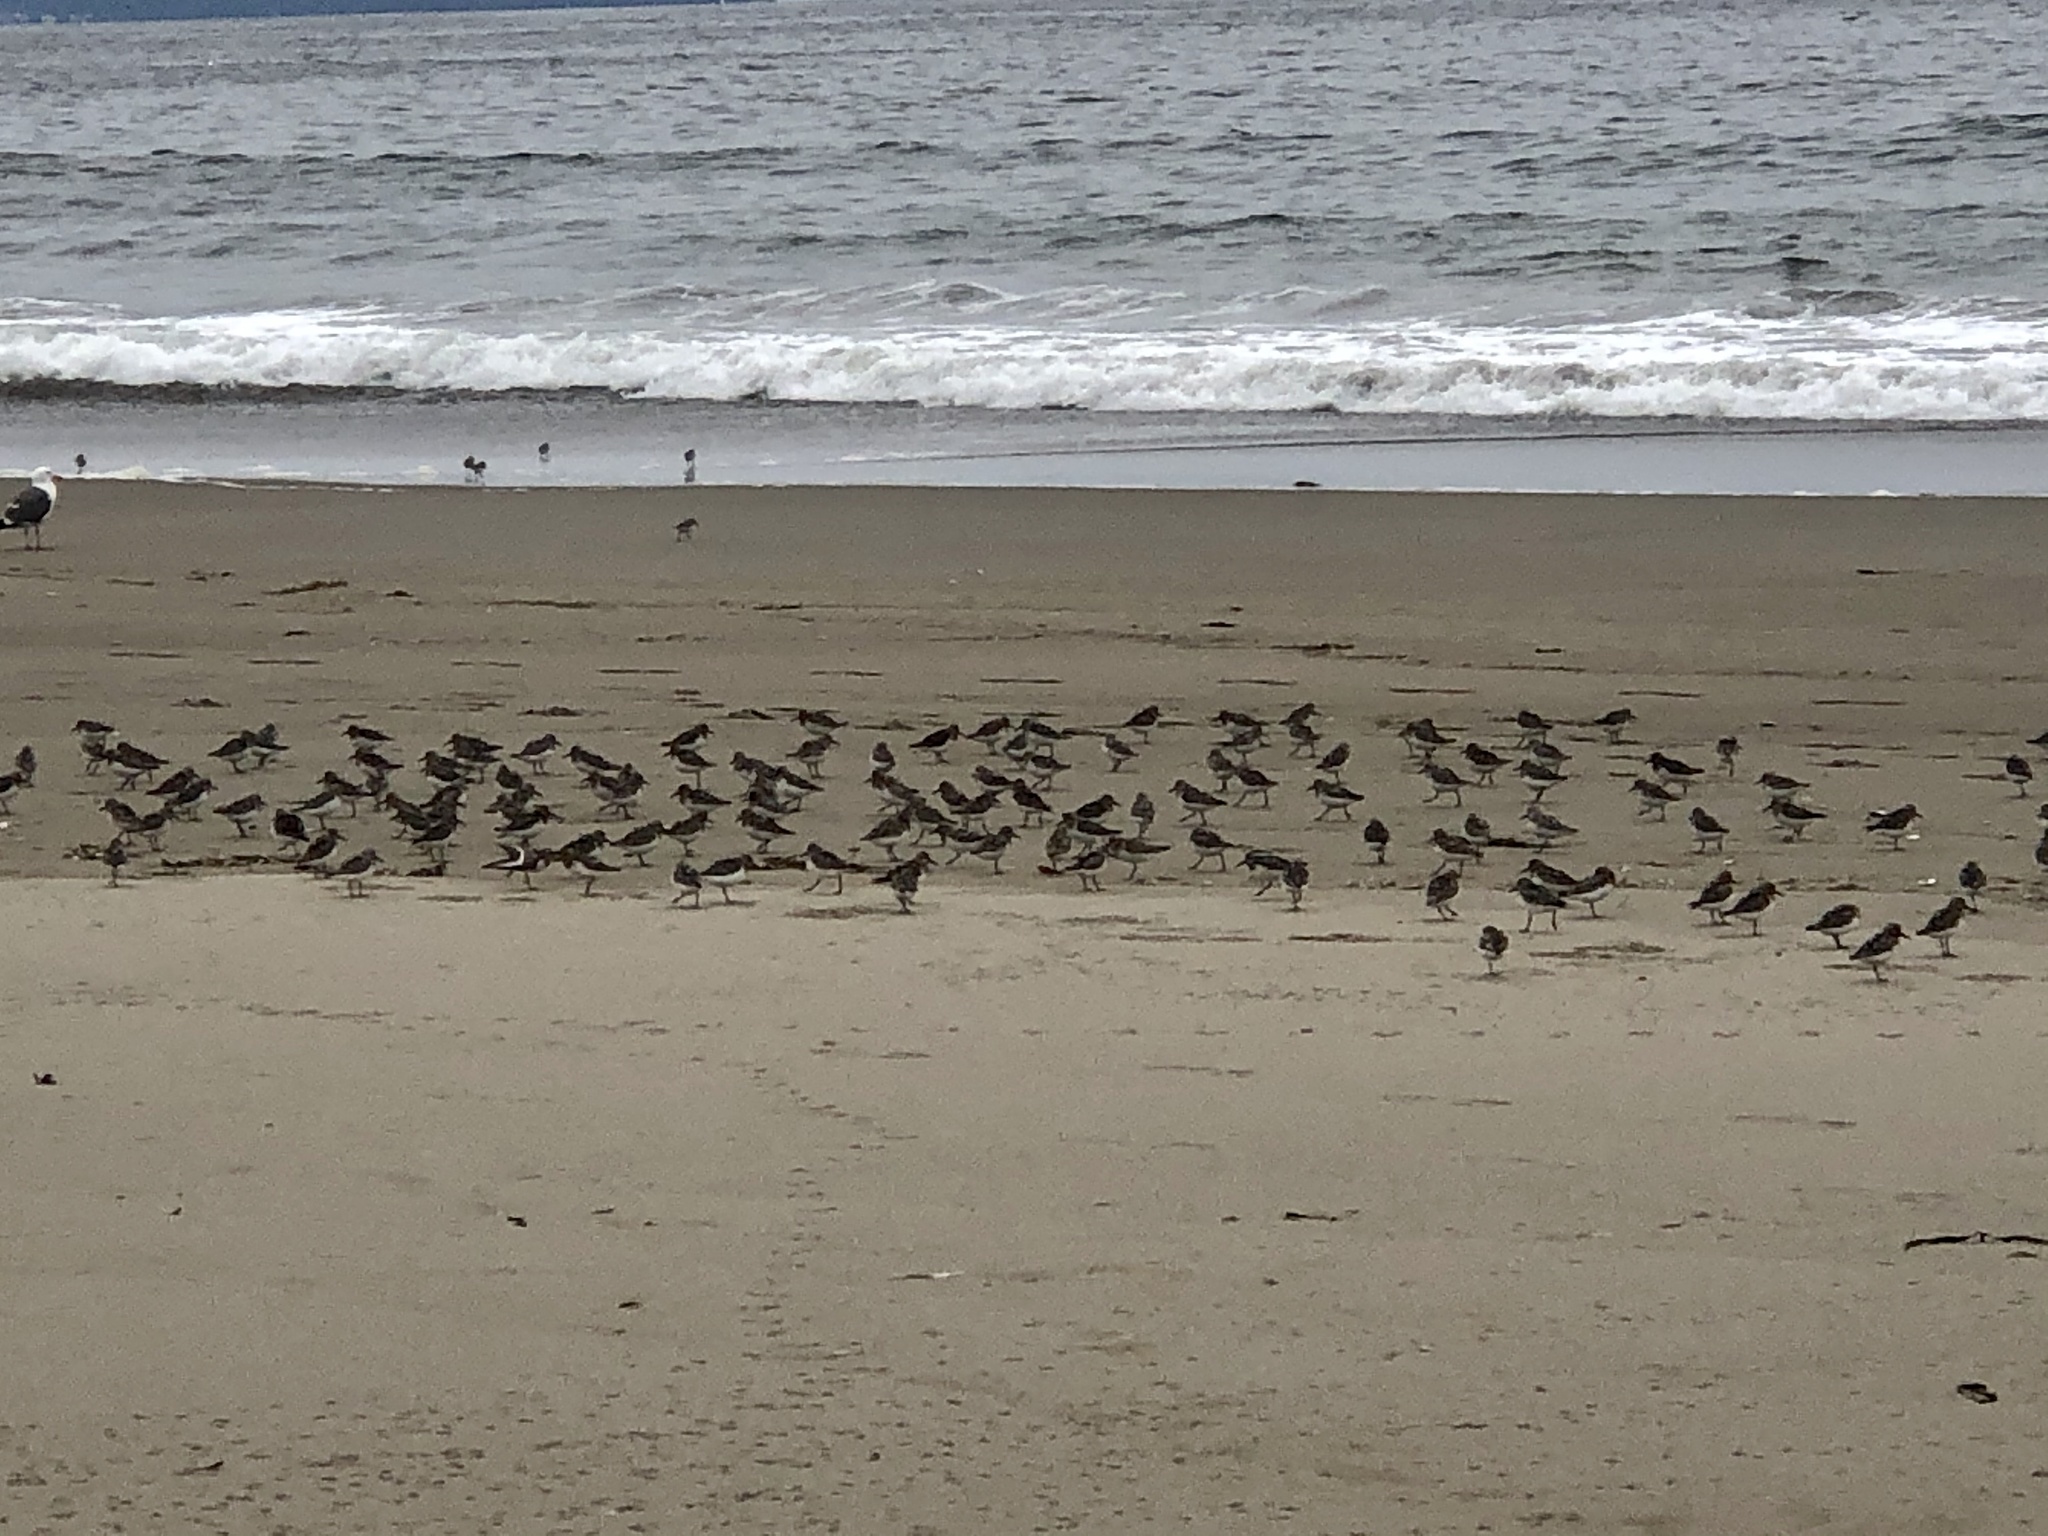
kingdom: Animalia
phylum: Chordata
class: Aves
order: Charadriiformes
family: Scolopacidae
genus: Calidris
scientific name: Calidris alba
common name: Sanderling
